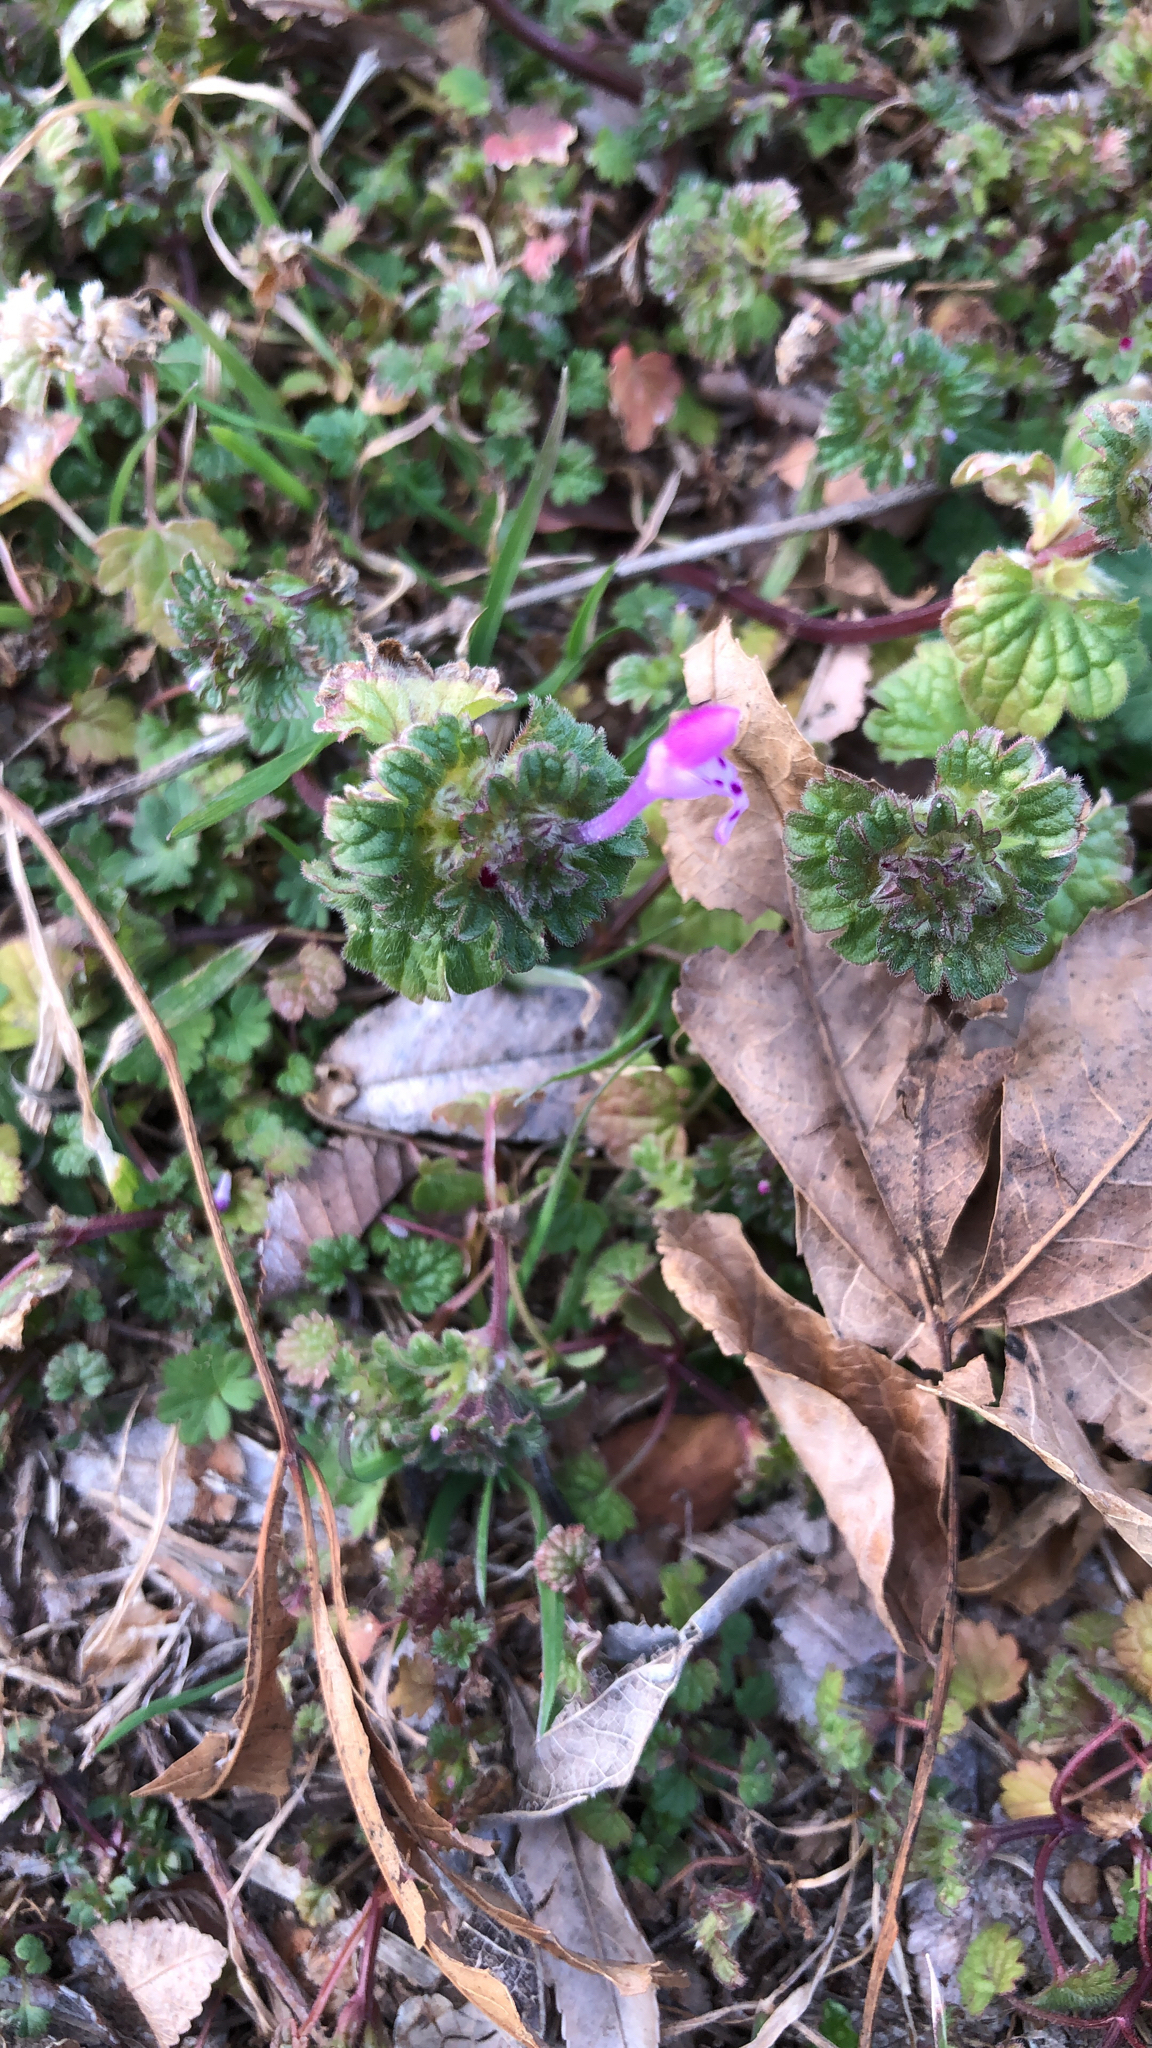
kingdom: Plantae
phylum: Tracheophyta
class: Magnoliopsida
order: Lamiales
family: Lamiaceae
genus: Lamium
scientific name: Lamium amplexicaule
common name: Henbit dead-nettle
